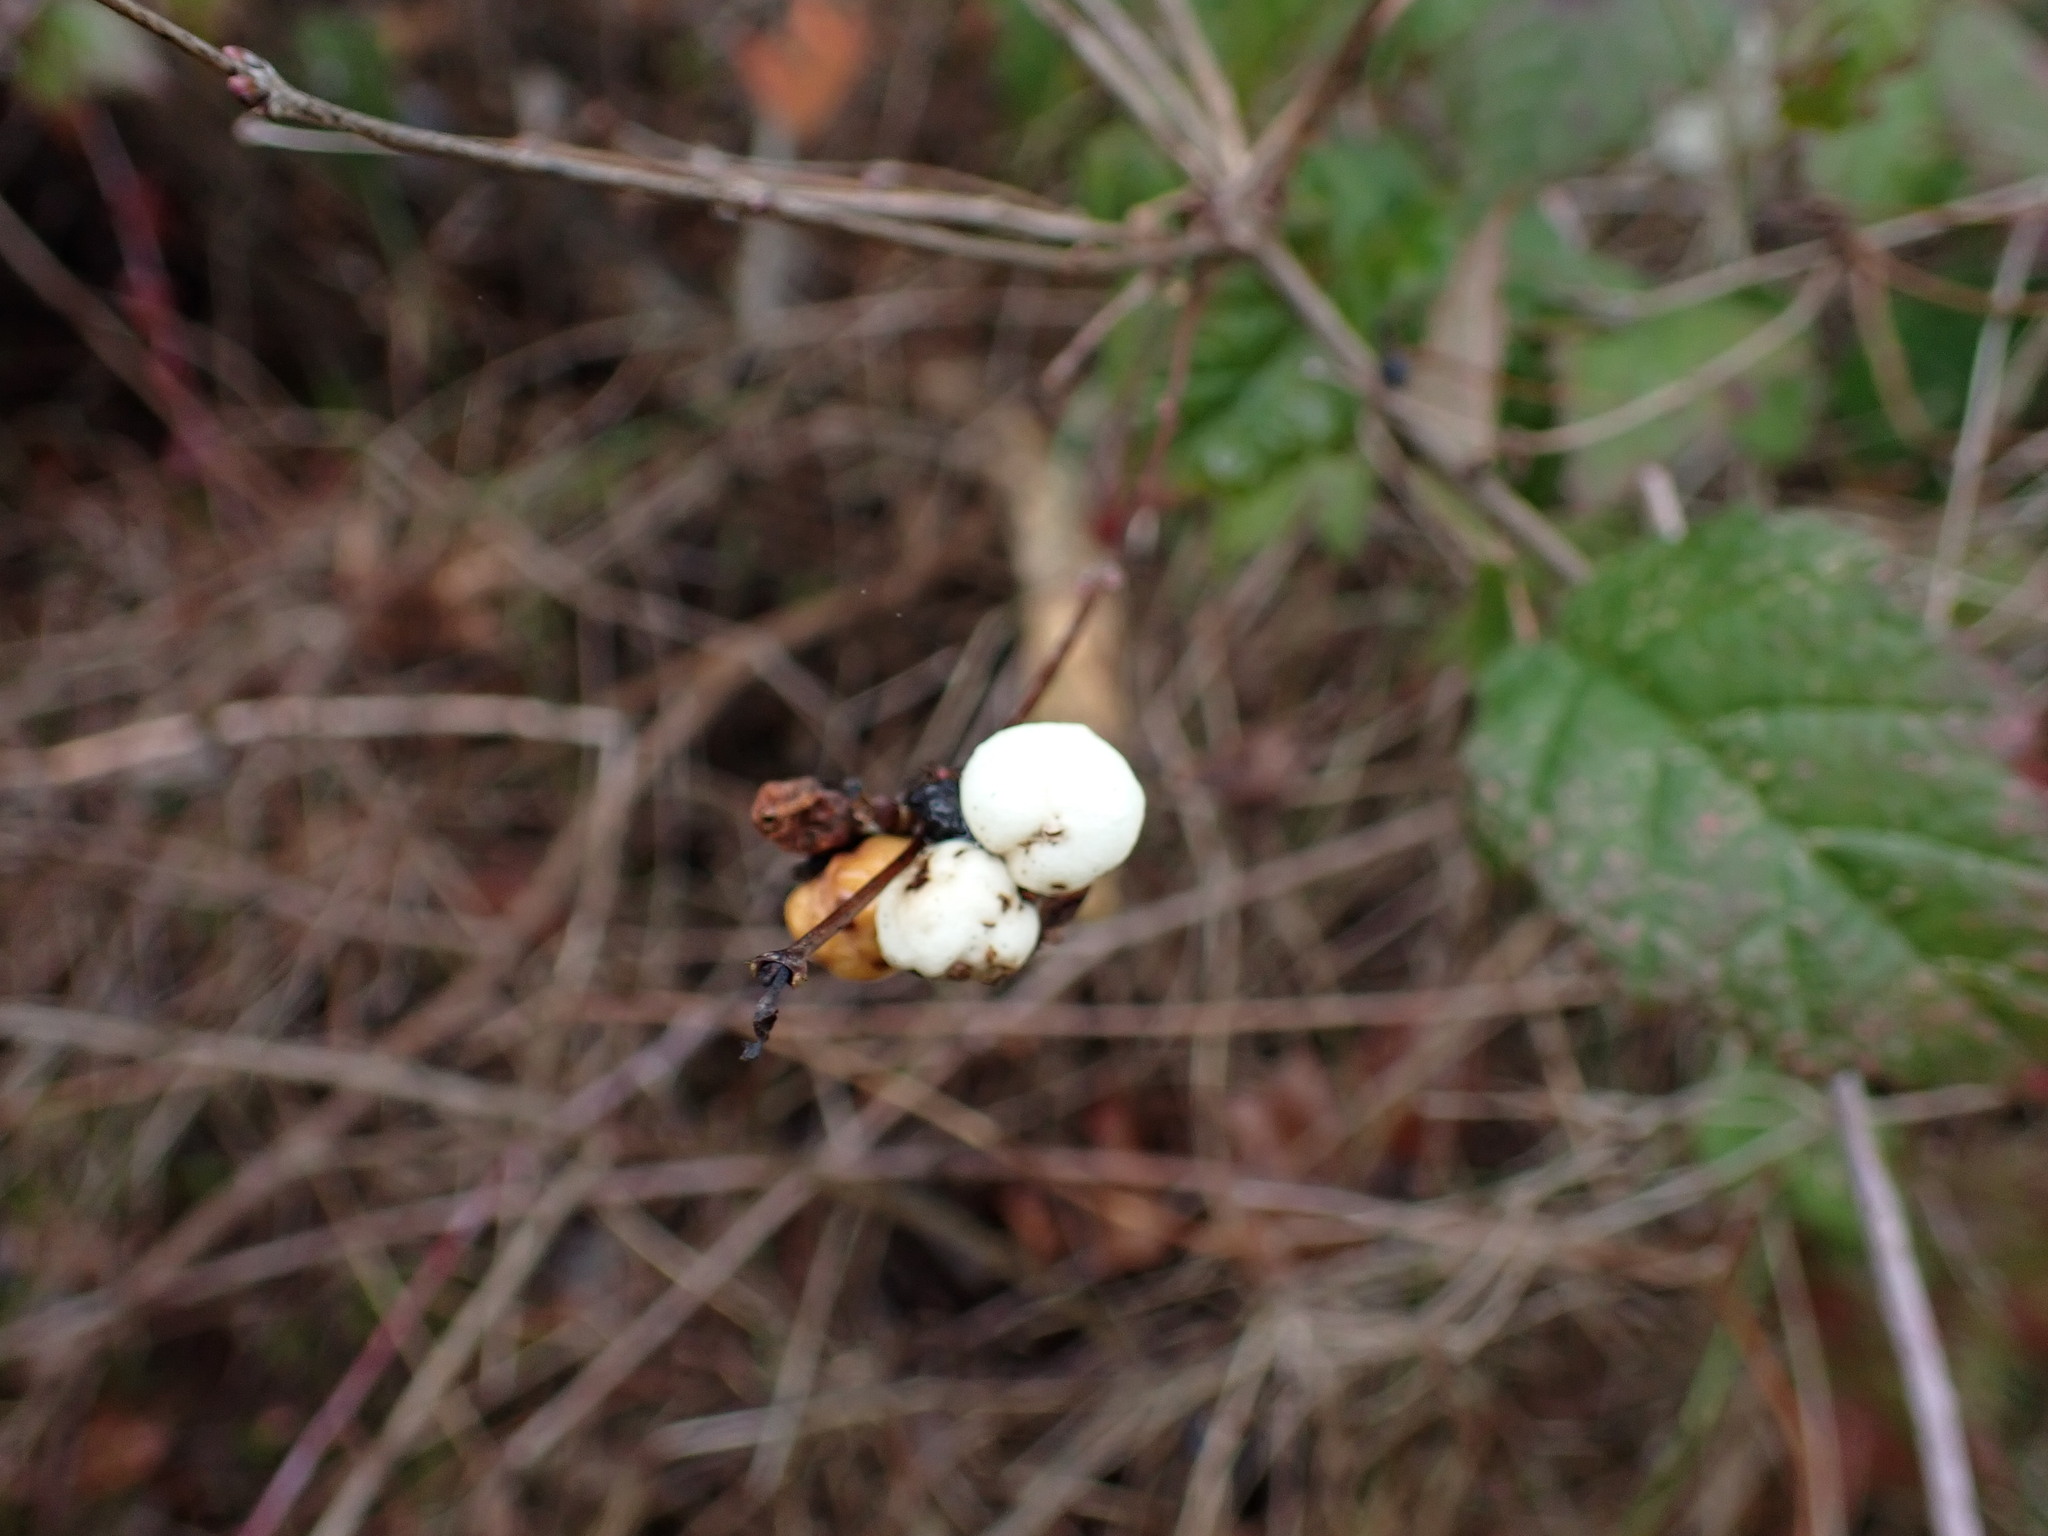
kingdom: Plantae
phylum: Tracheophyta
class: Magnoliopsida
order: Dipsacales
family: Caprifoliaceae
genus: Symphoricarpos
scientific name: Symphoricarpos albus
